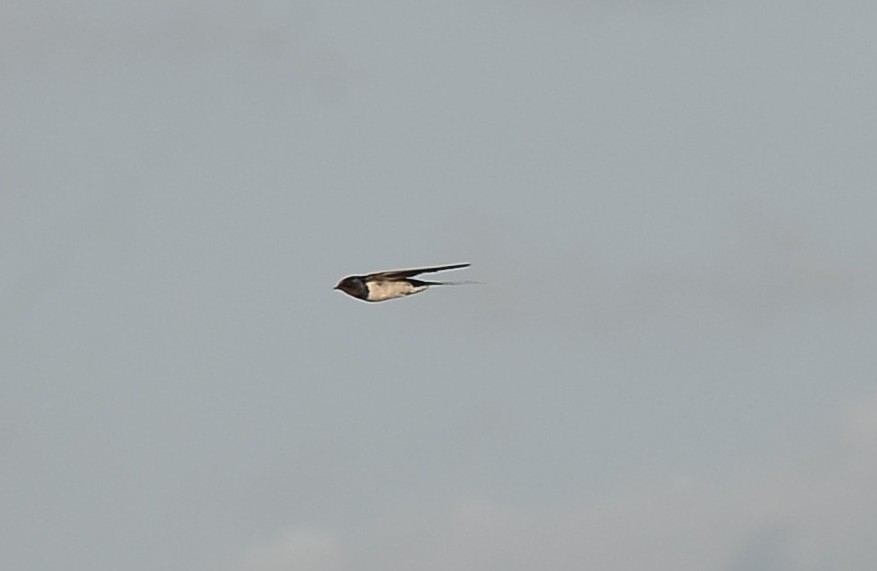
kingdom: Animalia
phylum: Chordata
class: Aves
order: Passeriformes
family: Hirundinidae
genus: Hirundo
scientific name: Hirundo rustica
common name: Barn swallow
